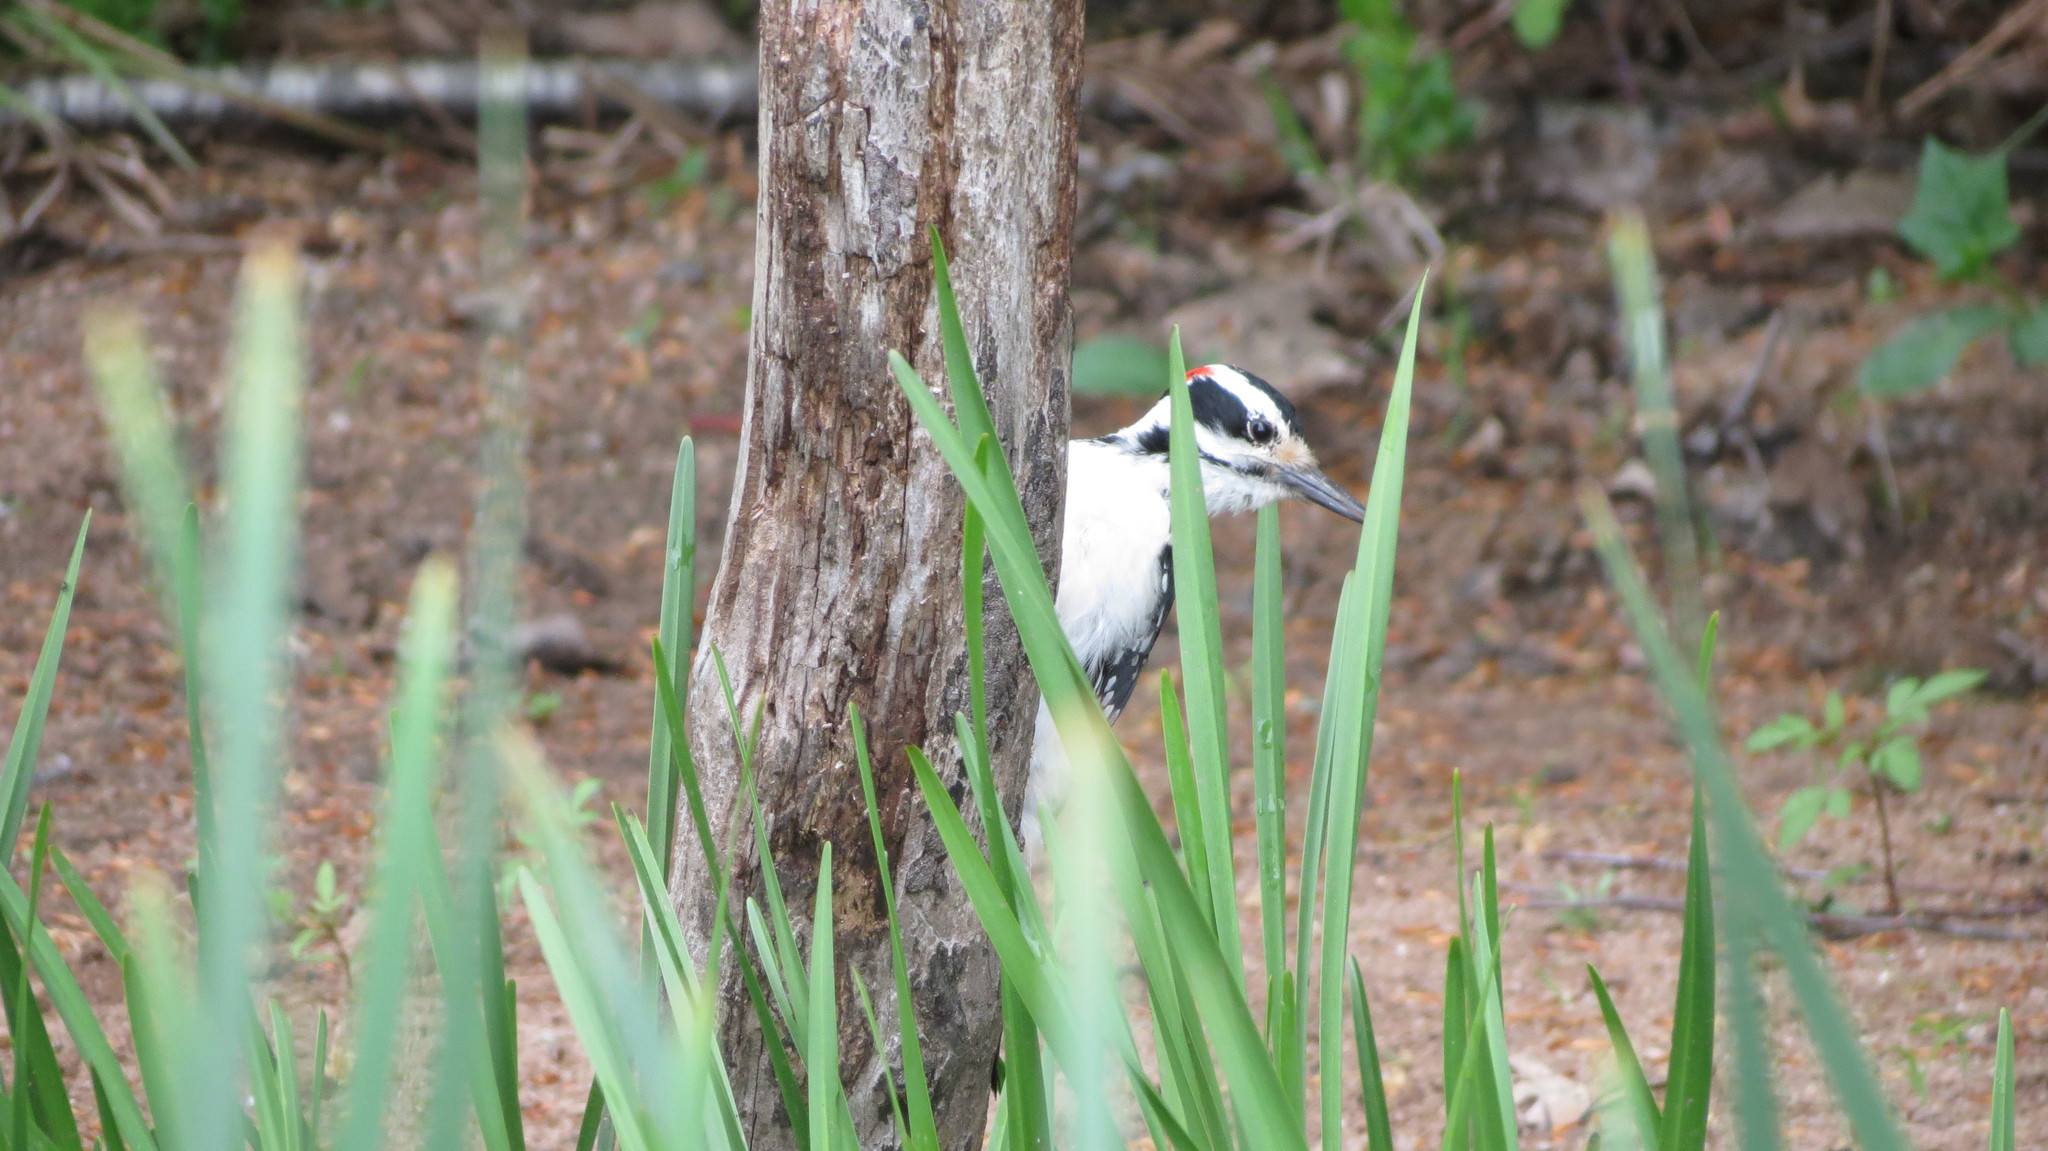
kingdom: Animalia
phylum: Chordata
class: Aves
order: Piciformes
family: Picidae
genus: Leuconotopicus
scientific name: Leuconotopicus villosus
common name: Hairy woodpecker
